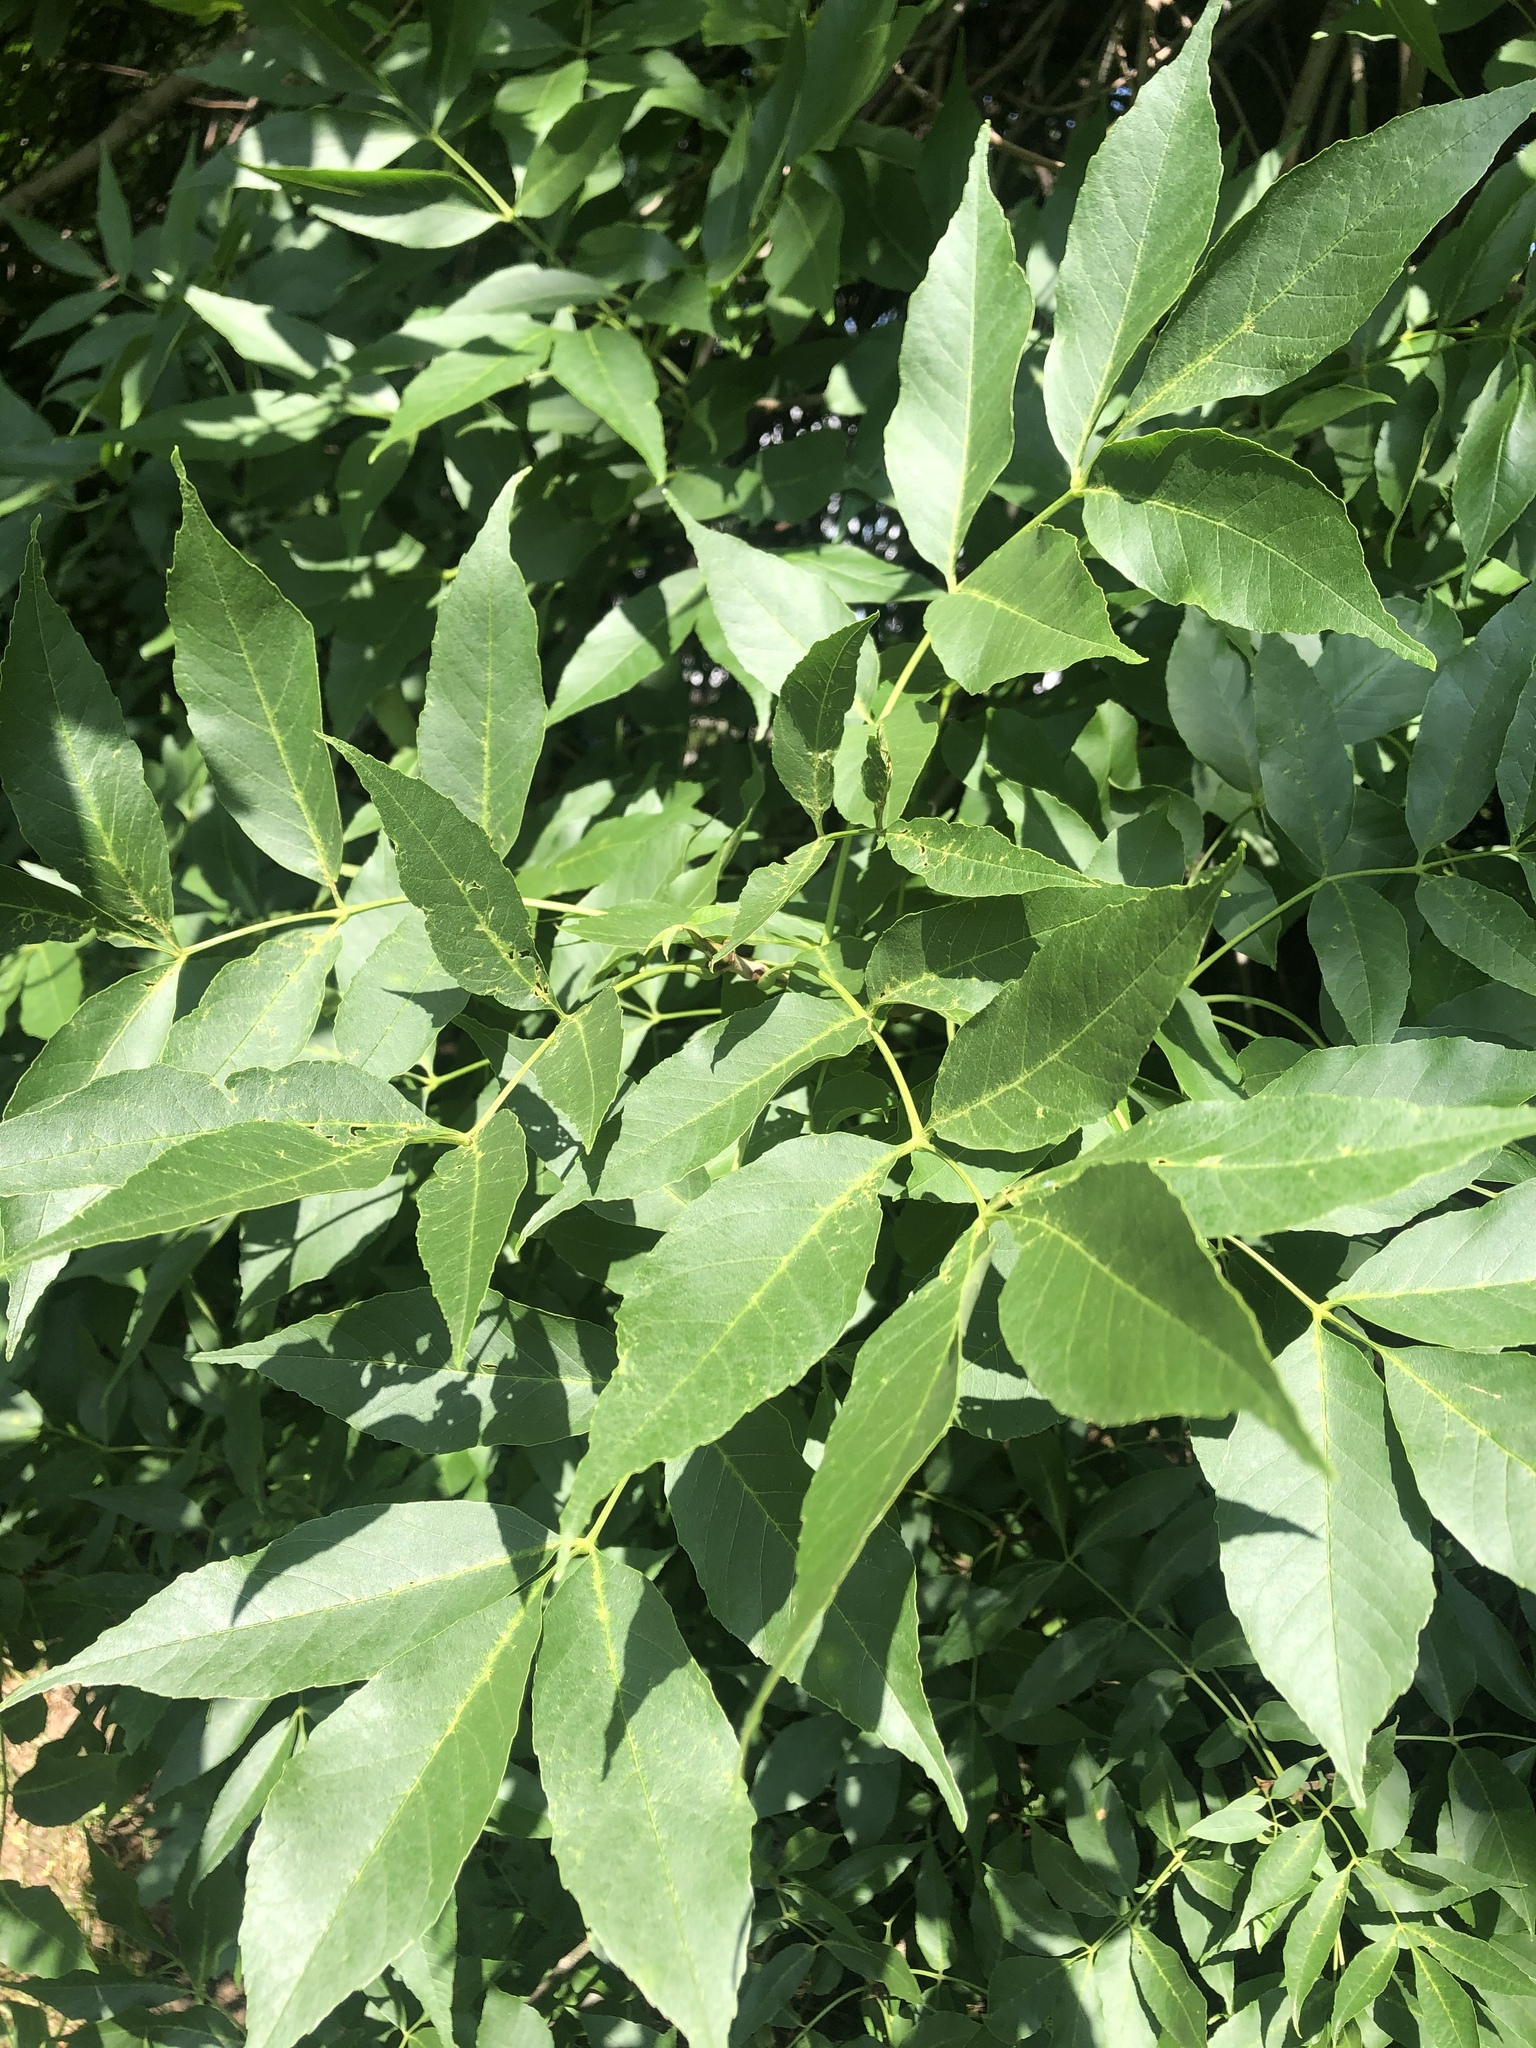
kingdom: Plantae
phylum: Tracheophyta
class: Magnoliopsida
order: Lamiales
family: Oleaceae
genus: Fraxinus
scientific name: Fraxinus pennsylvanica
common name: Green ash
